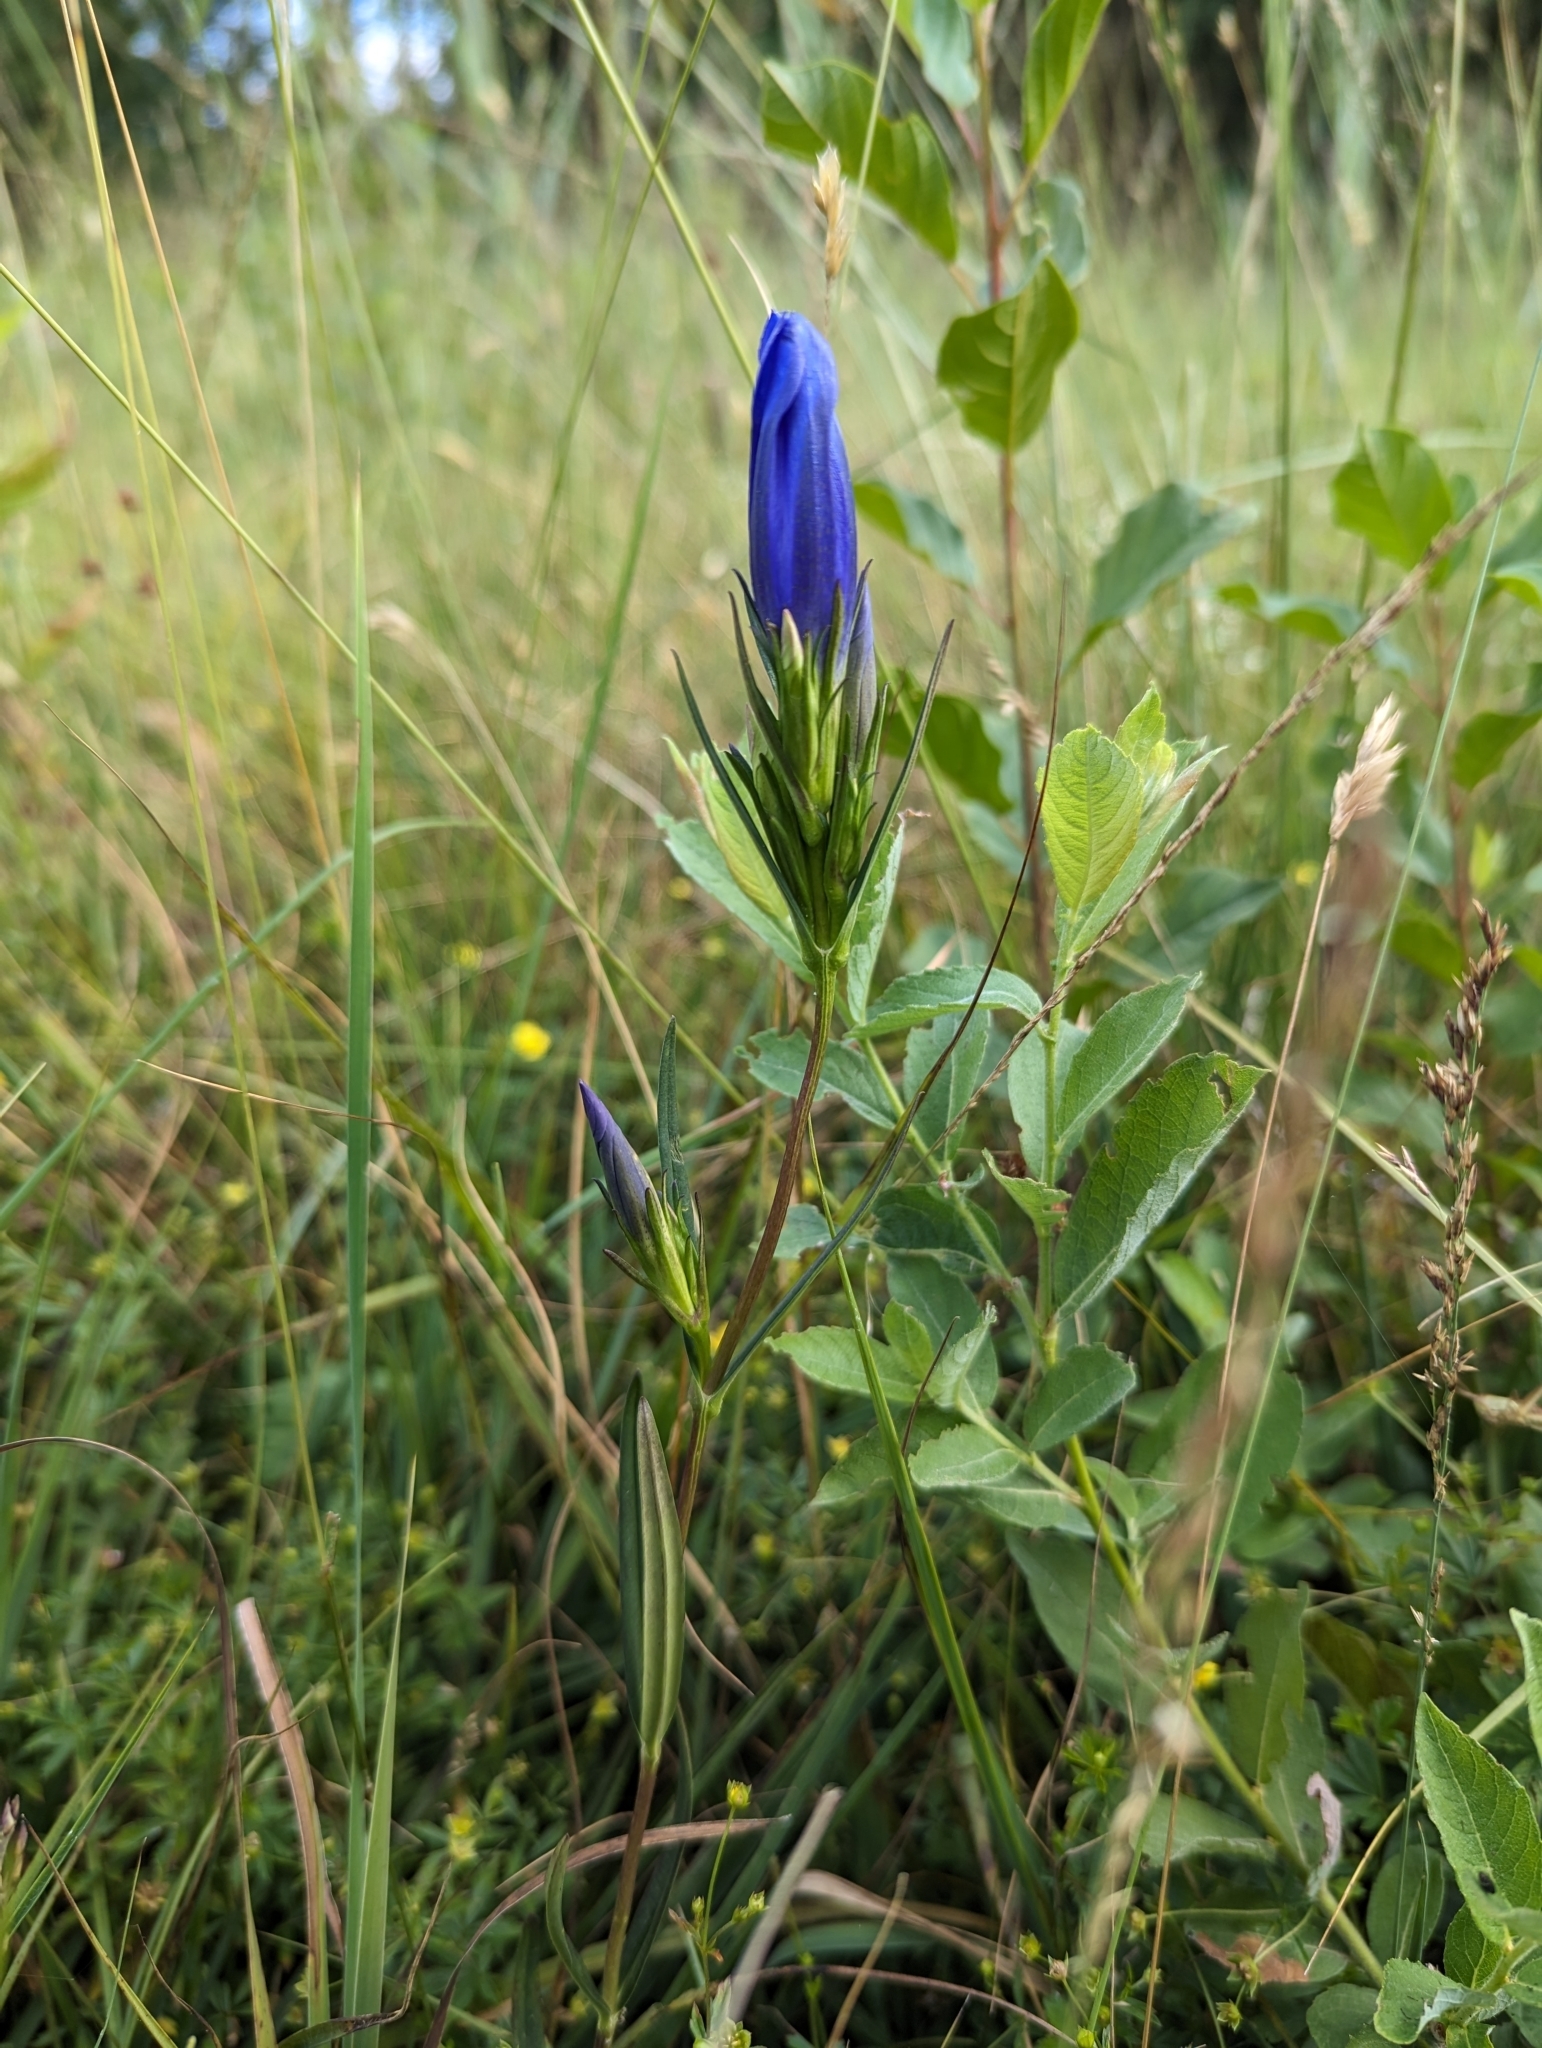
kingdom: Plantae
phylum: Tracheophyta
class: Magnoliopsida
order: Gentianales
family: Gentianaceae
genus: Gentiana
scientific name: Gentiana pneumonanthe
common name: Marsh gentian
